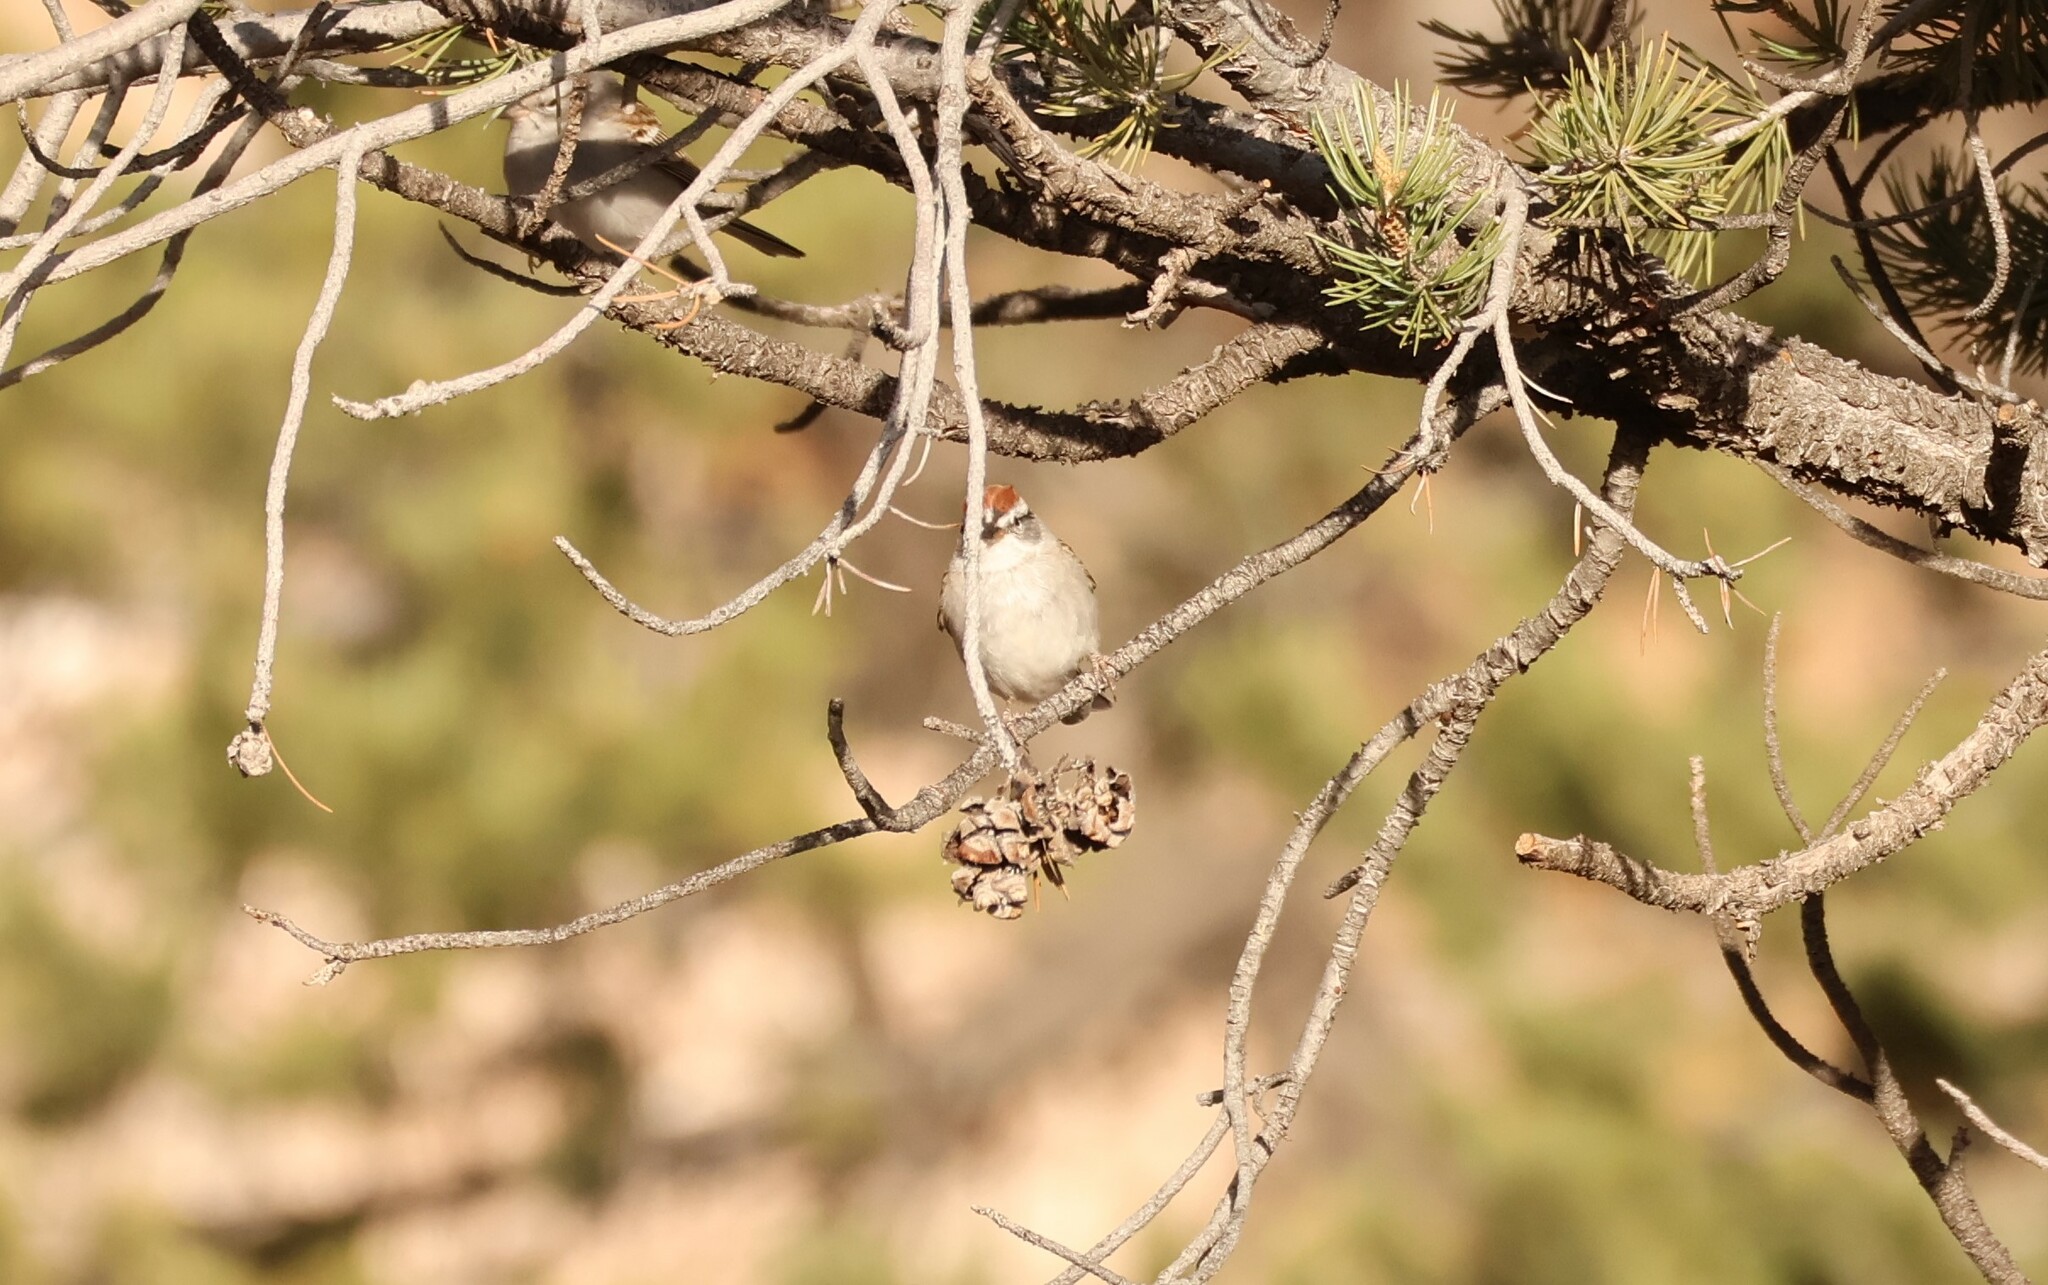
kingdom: Animalia
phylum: Chordata
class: Aves
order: Passeriformes
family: Passerellidae
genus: Spizella
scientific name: Spizella passerina
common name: Chipping sparrow
